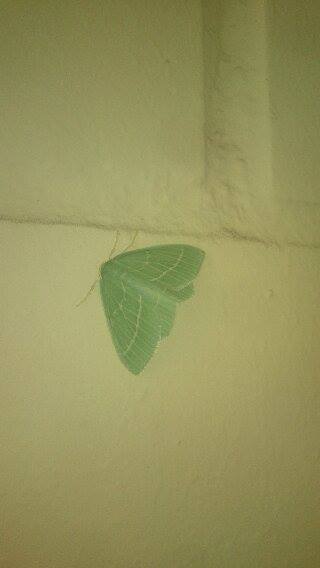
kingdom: Animalia
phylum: Arthropoda
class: Insecta
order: Lepidoptera
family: Geometridae
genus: Hemistola
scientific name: Hemistola chrysoprasaria
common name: Small emerald
